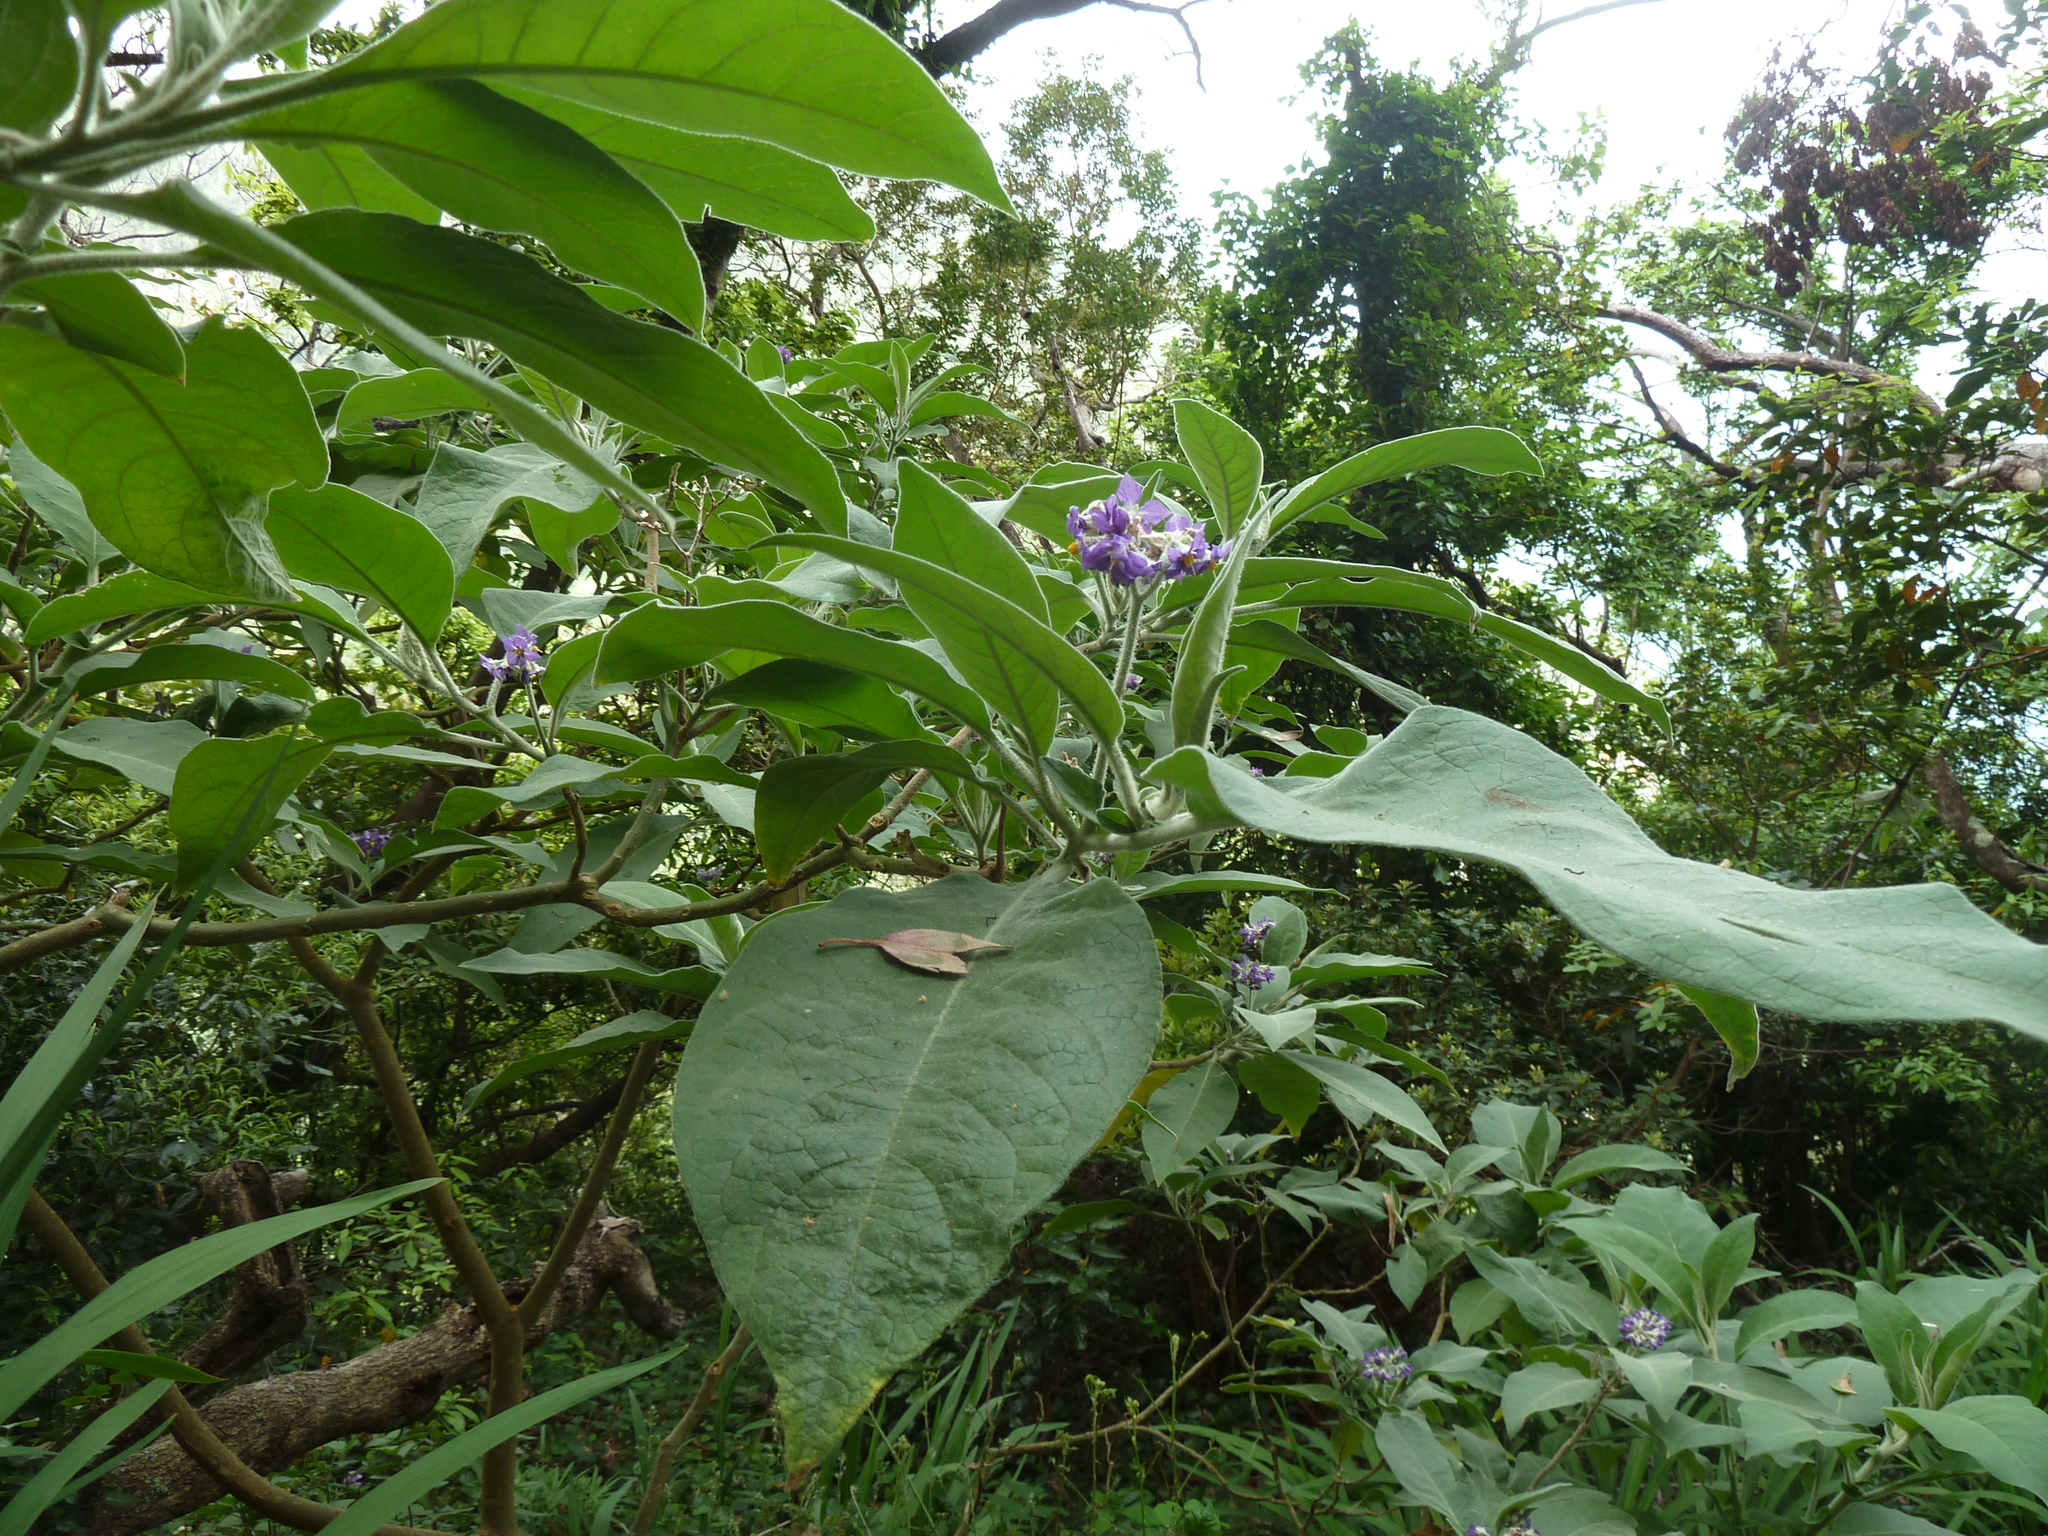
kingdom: Plantae
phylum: Tracheophyta
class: Magnoliopsida
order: Solanales
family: Solanaceae
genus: Solanum
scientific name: Solanum mauritianum
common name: Earleaf nightshade
